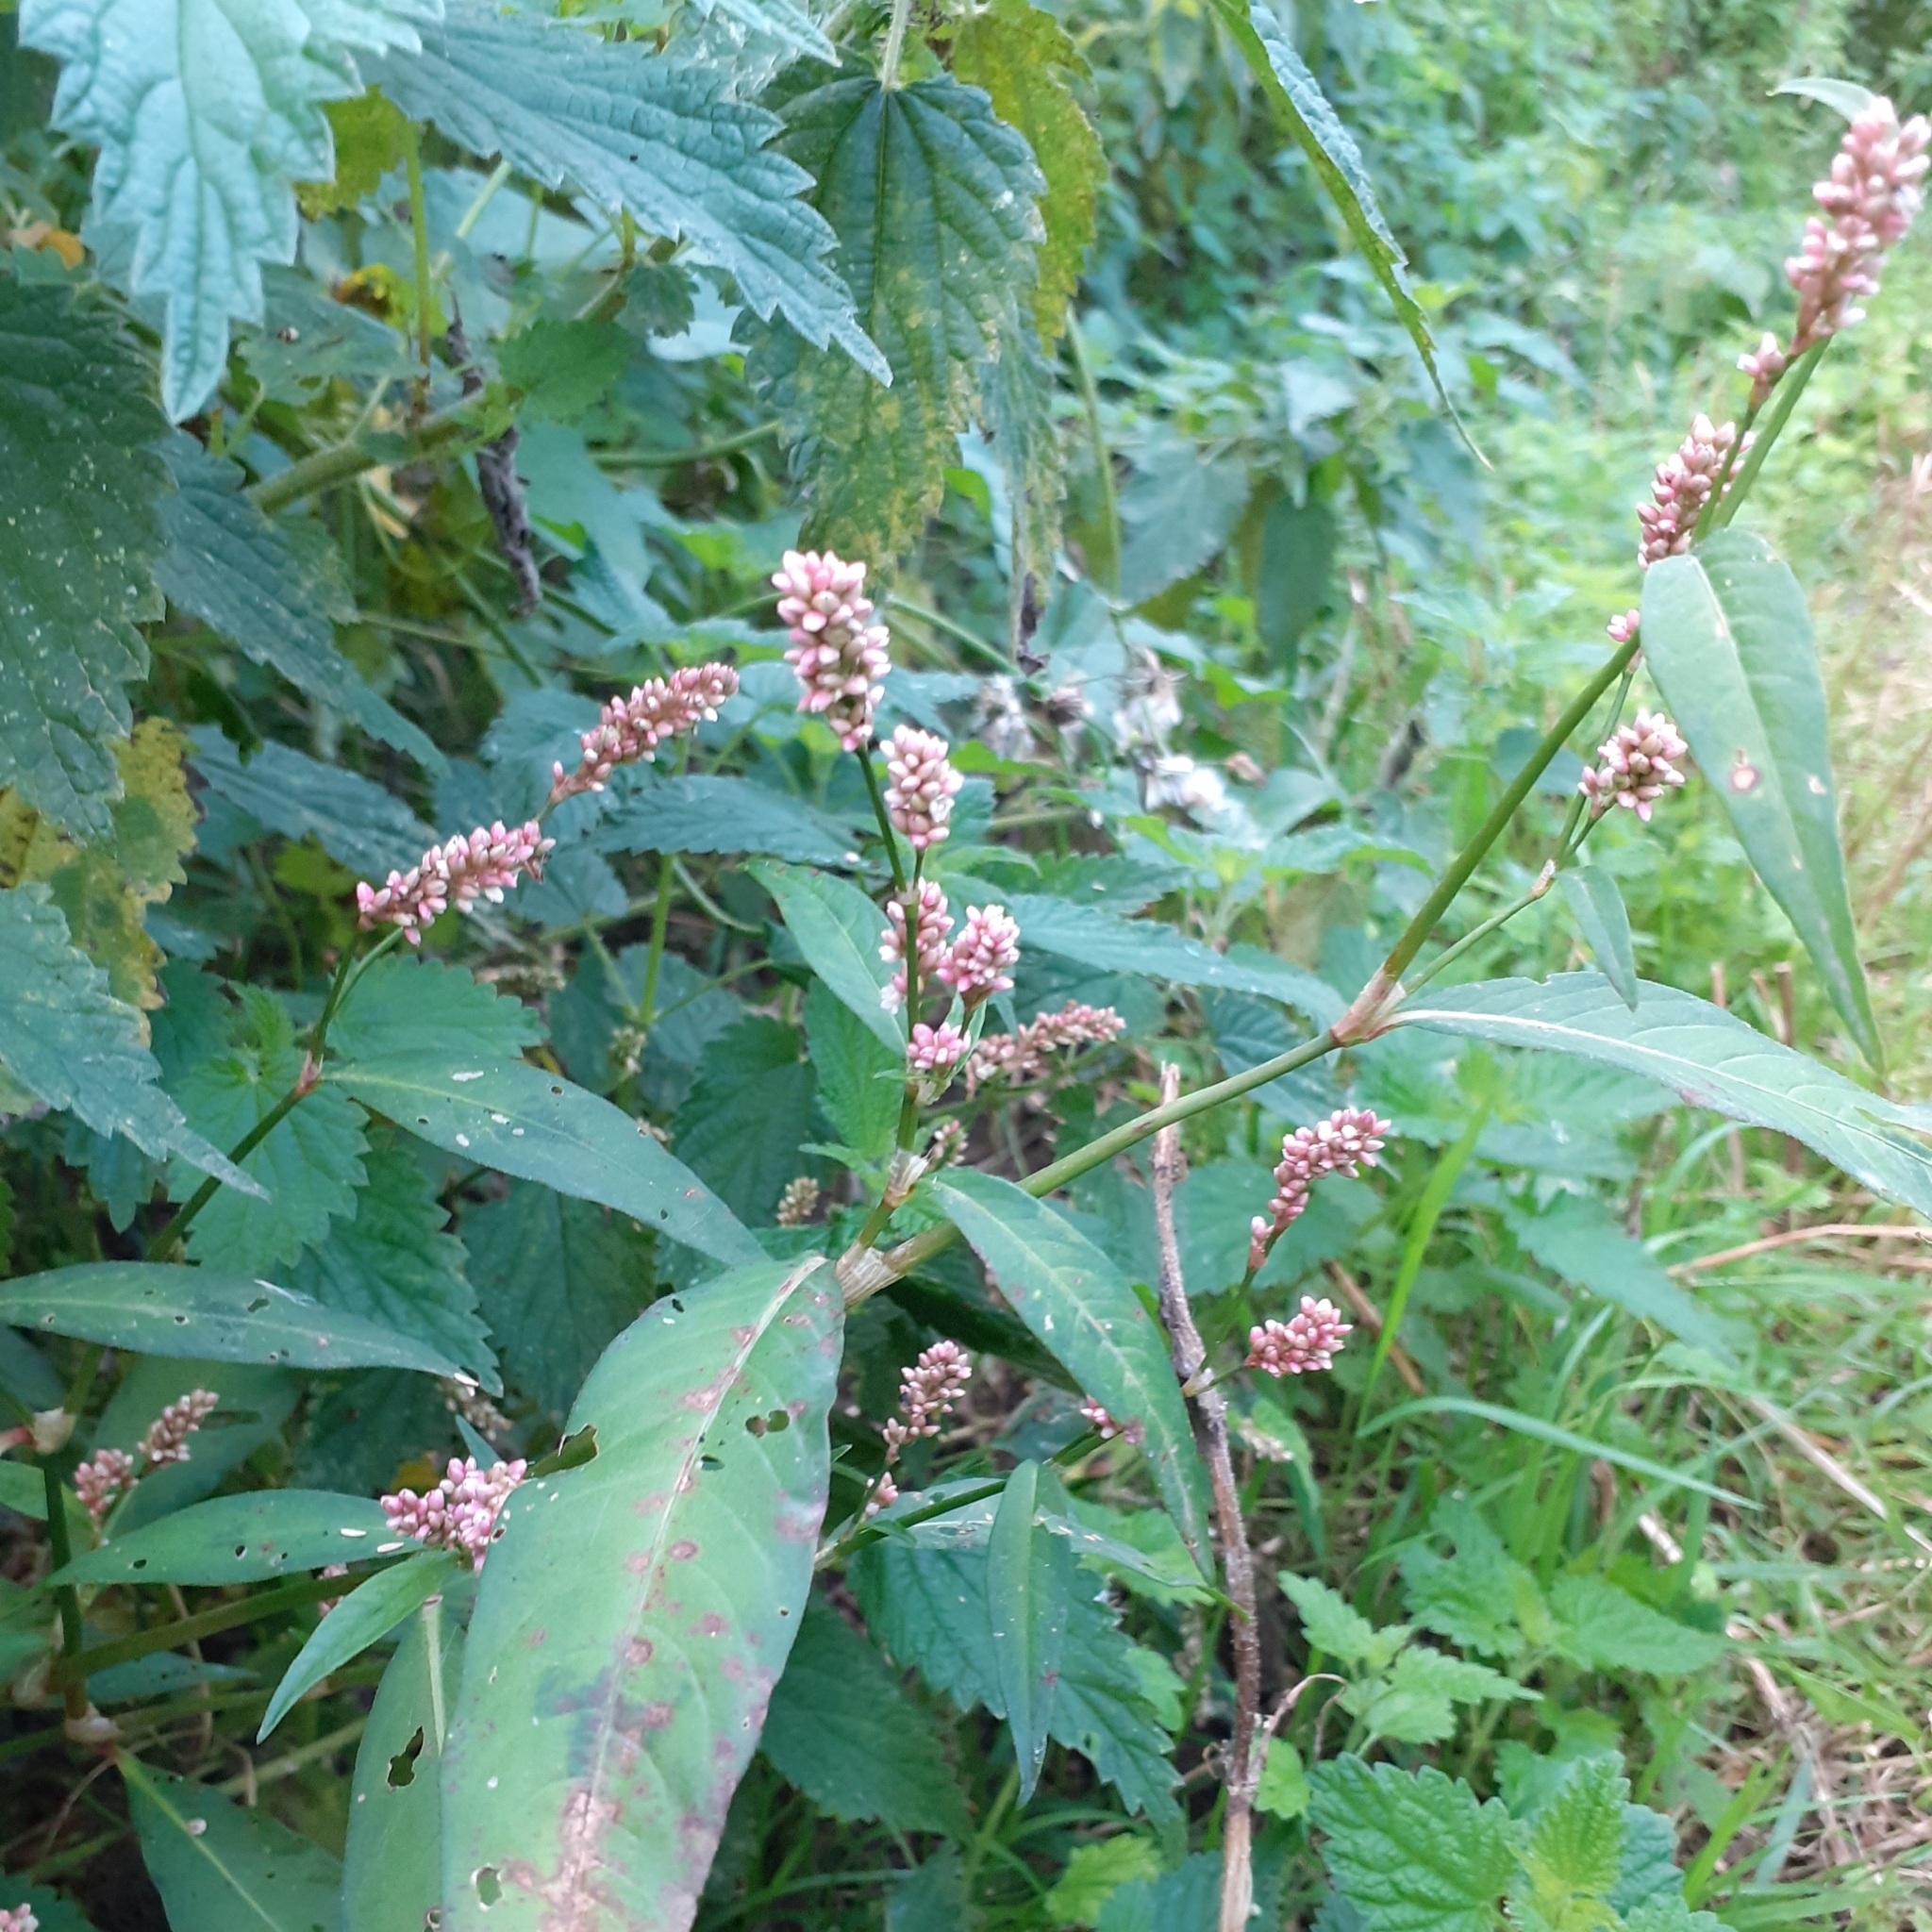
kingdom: Plantae
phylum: Tracheophyta
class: Magnoliopsida
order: Caryophyllales
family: Polygonaceae
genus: Persicaria
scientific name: Persicaria maculosa
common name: Redshank
